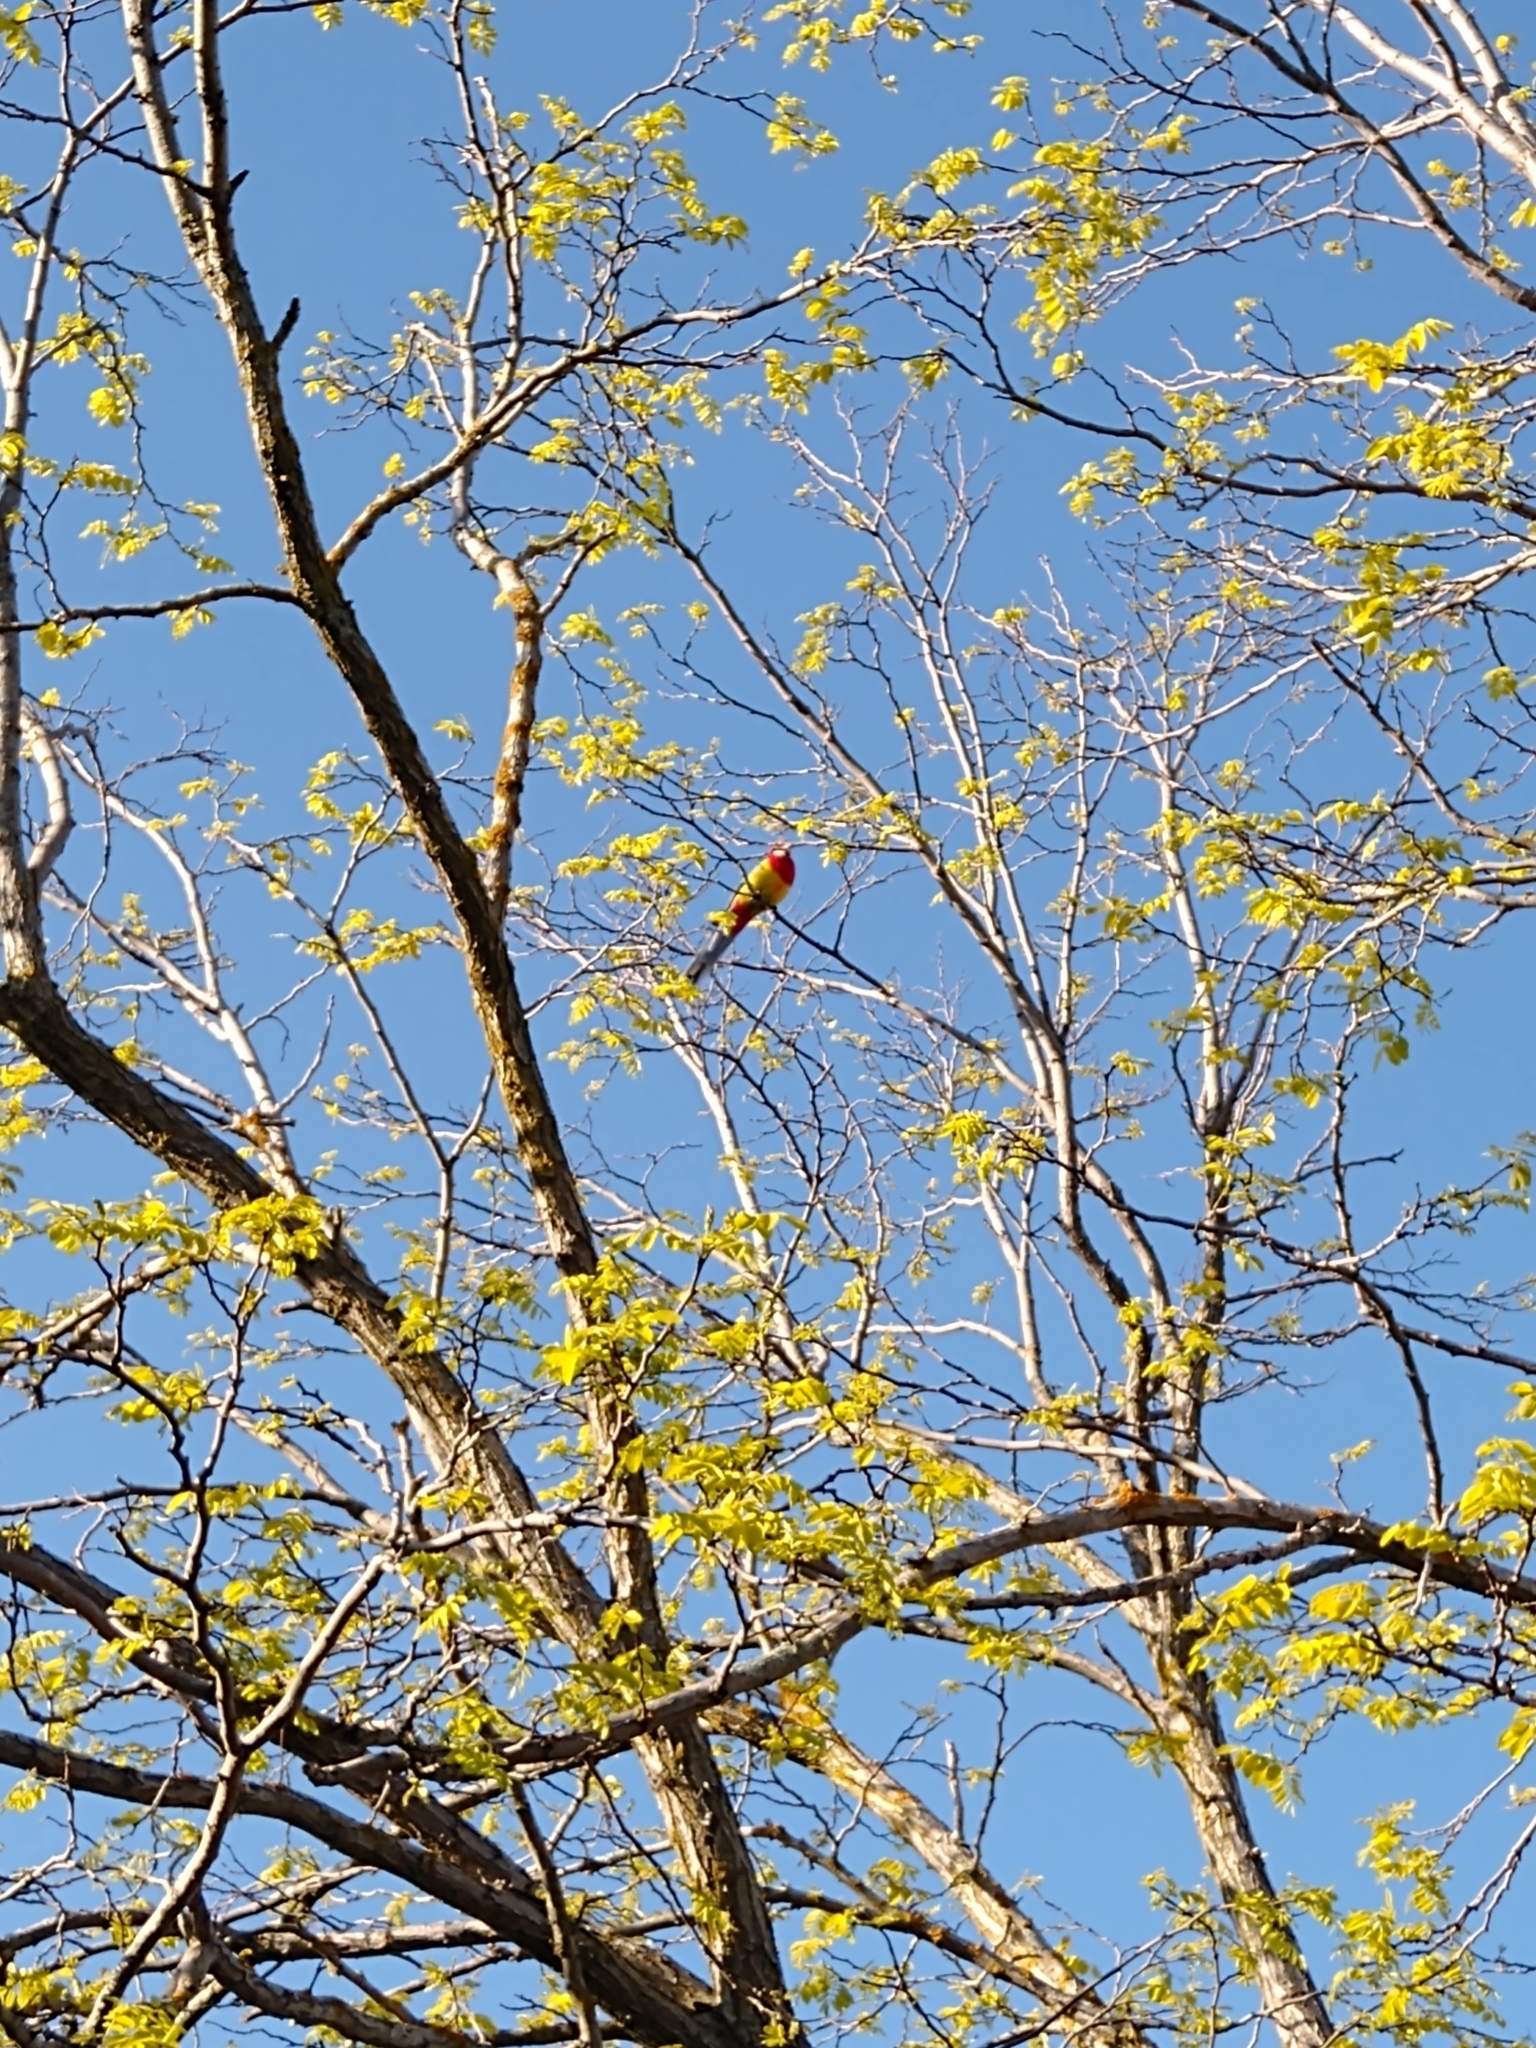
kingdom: Animalia
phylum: Chordata
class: Aves
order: Psittaciformes
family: Psittacidae
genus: Platycercus
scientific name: Platycercus eximius
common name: Eastern rosella
